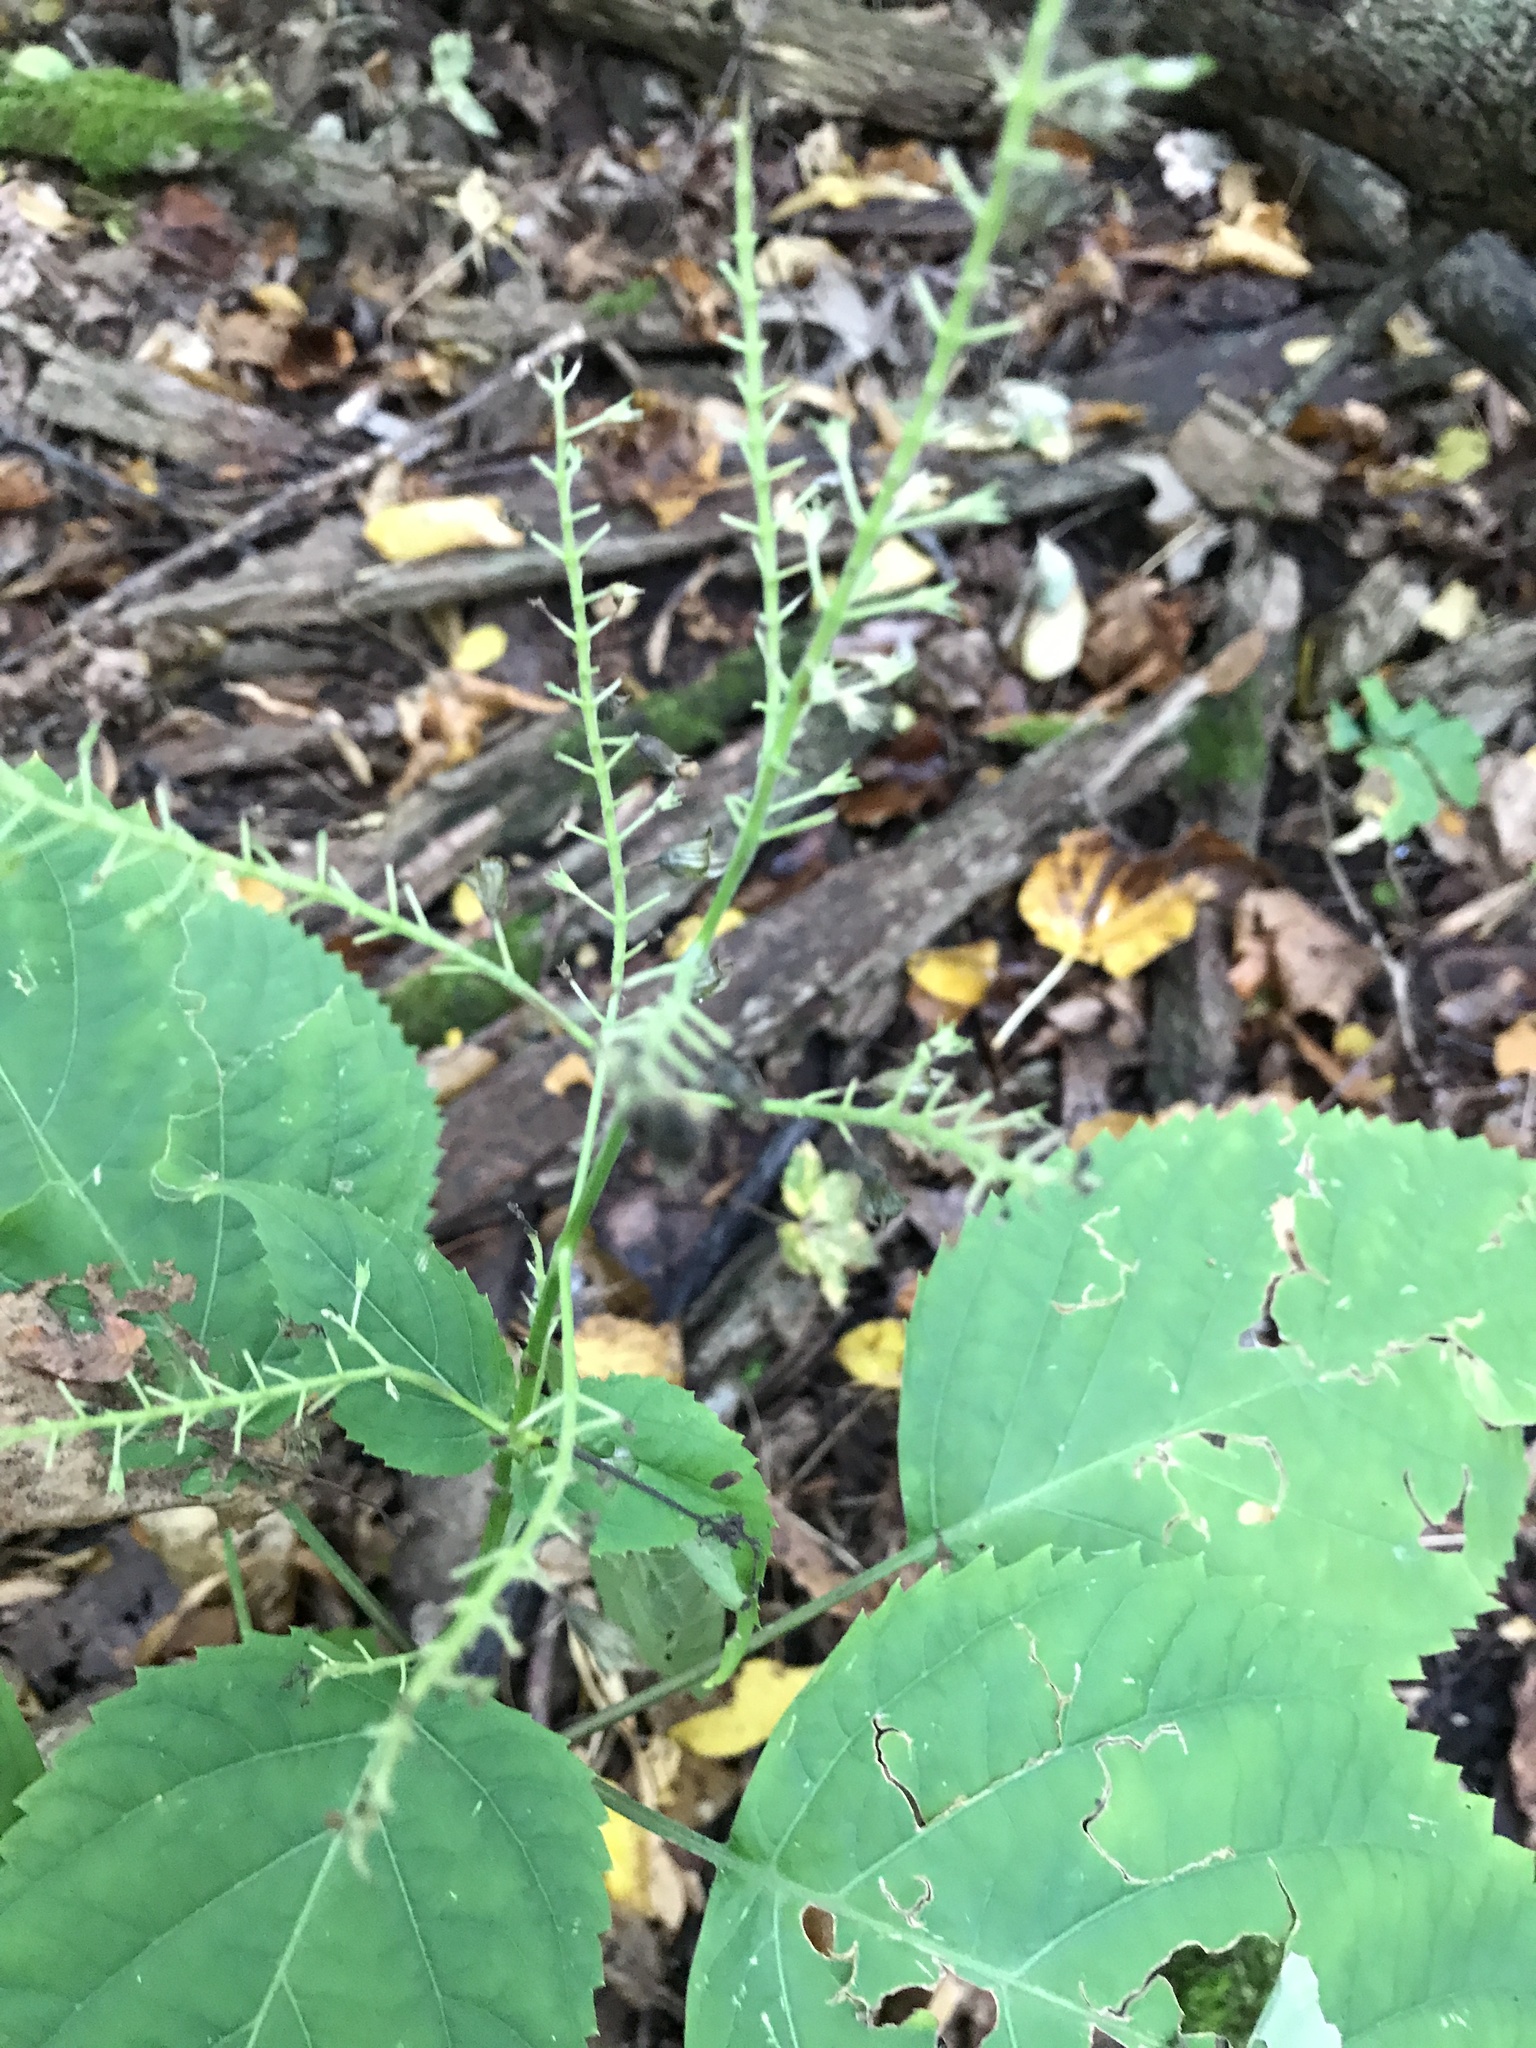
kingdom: Plantae
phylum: Tracheophyta
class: Magnoliopsida
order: Lamiales
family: Lamiaceae
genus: Collinsonia
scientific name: Collinsonia canadensis
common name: Northern horsebalm
